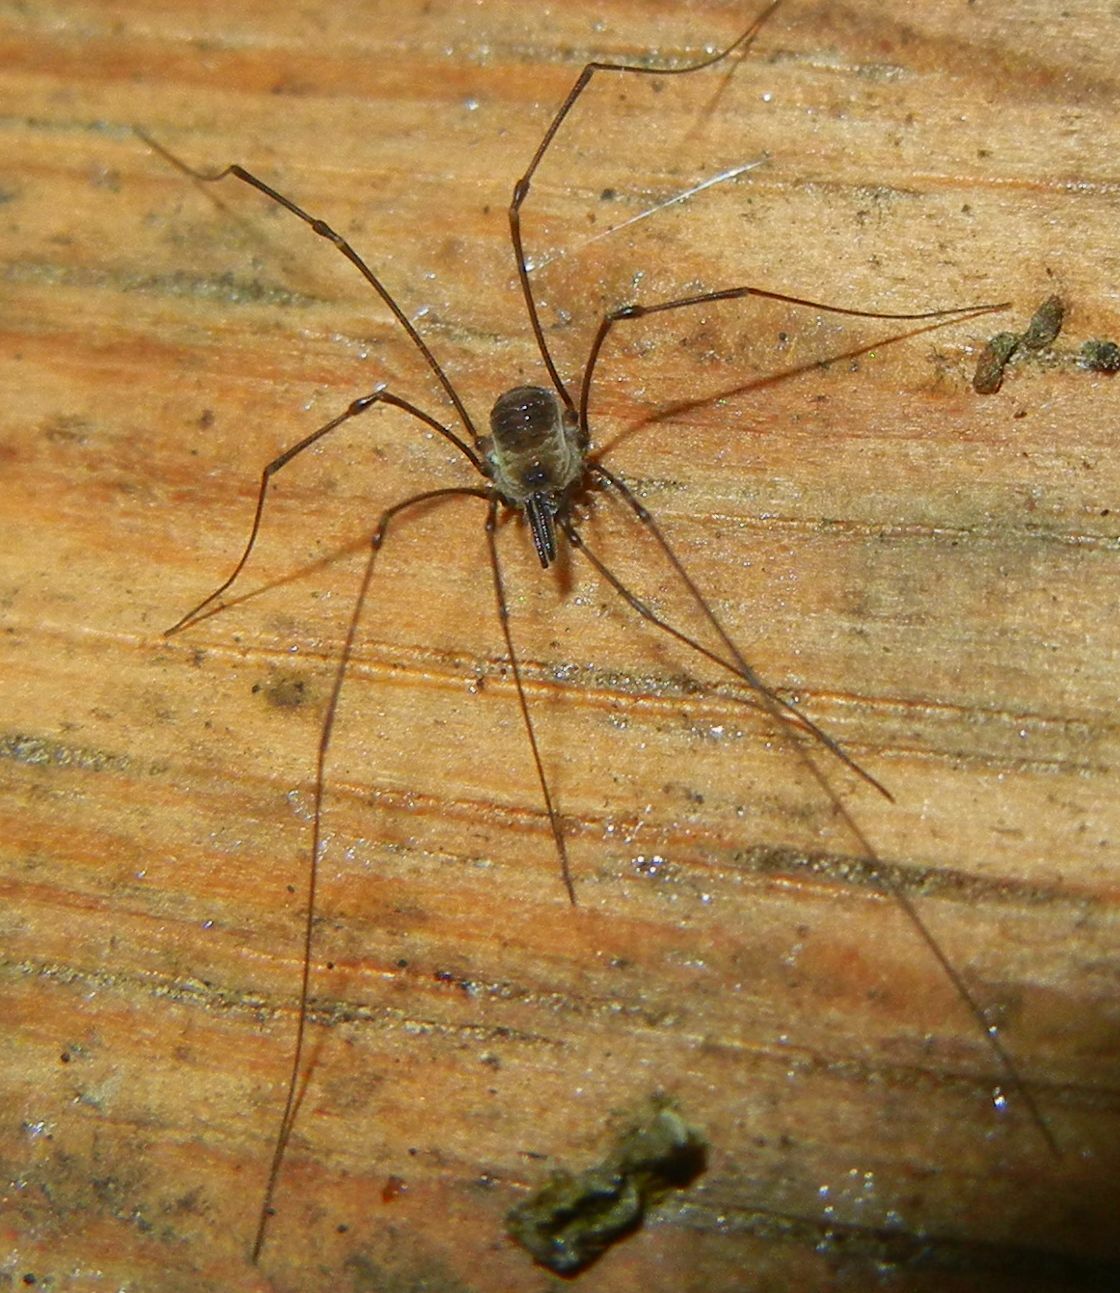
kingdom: Animalia
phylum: Arthropoda
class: Arachnida
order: Opiliones
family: Nemastomatidae
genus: Mitostoma
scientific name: Mitostoma chrysomelas
